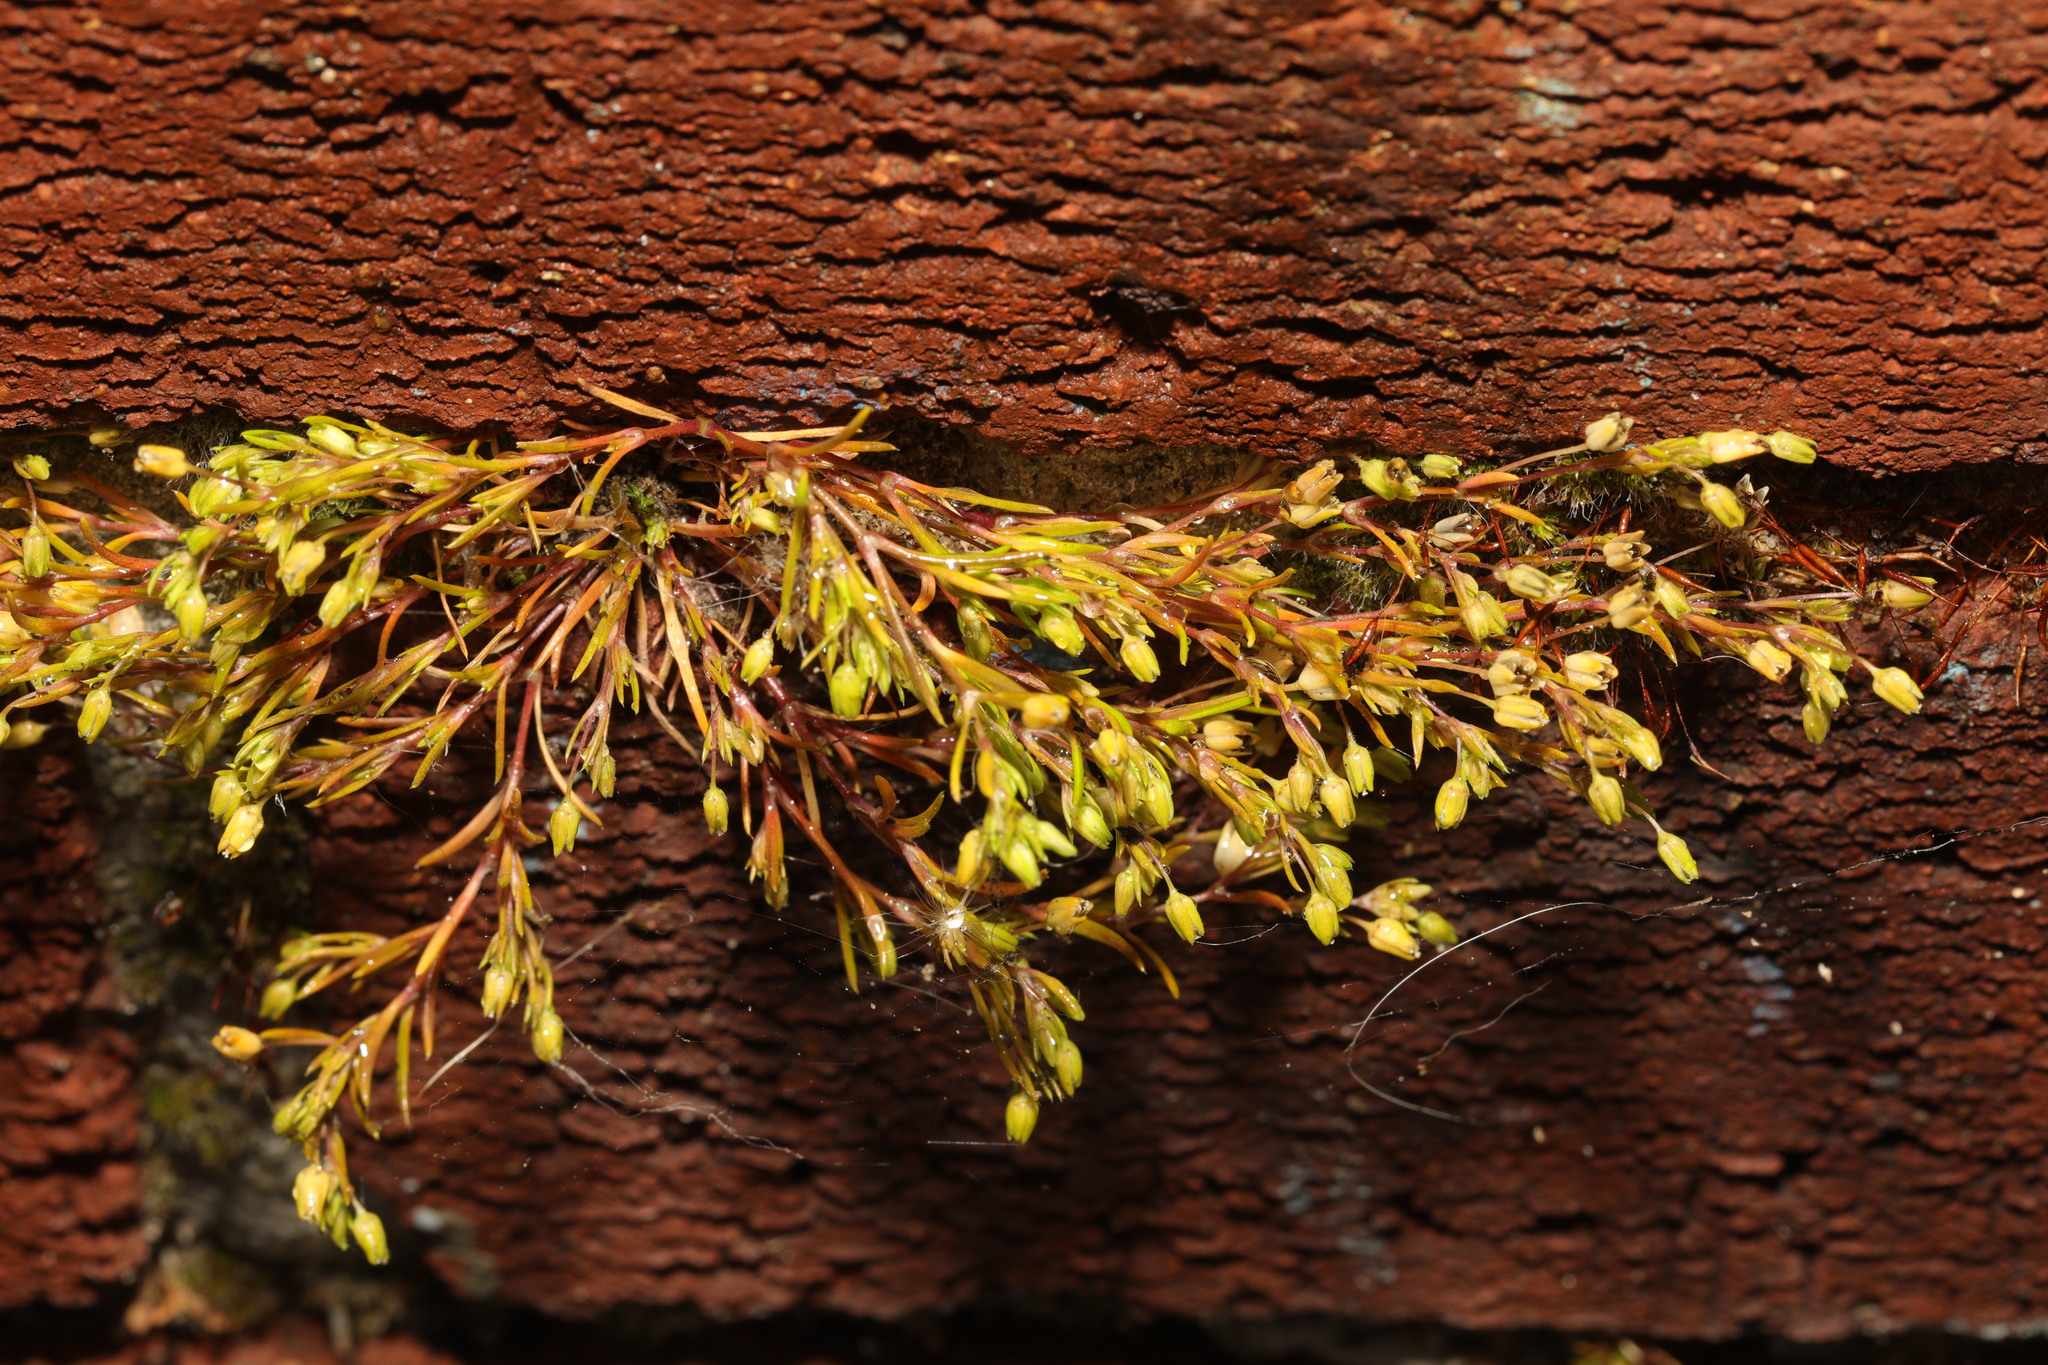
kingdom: Plantae
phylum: Tracheophyta
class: Magnoliopsida
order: Caryophyllales
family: Caryophyllaceae
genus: Sagina
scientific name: Sagina procumbens
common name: Procumbent pearlwort
